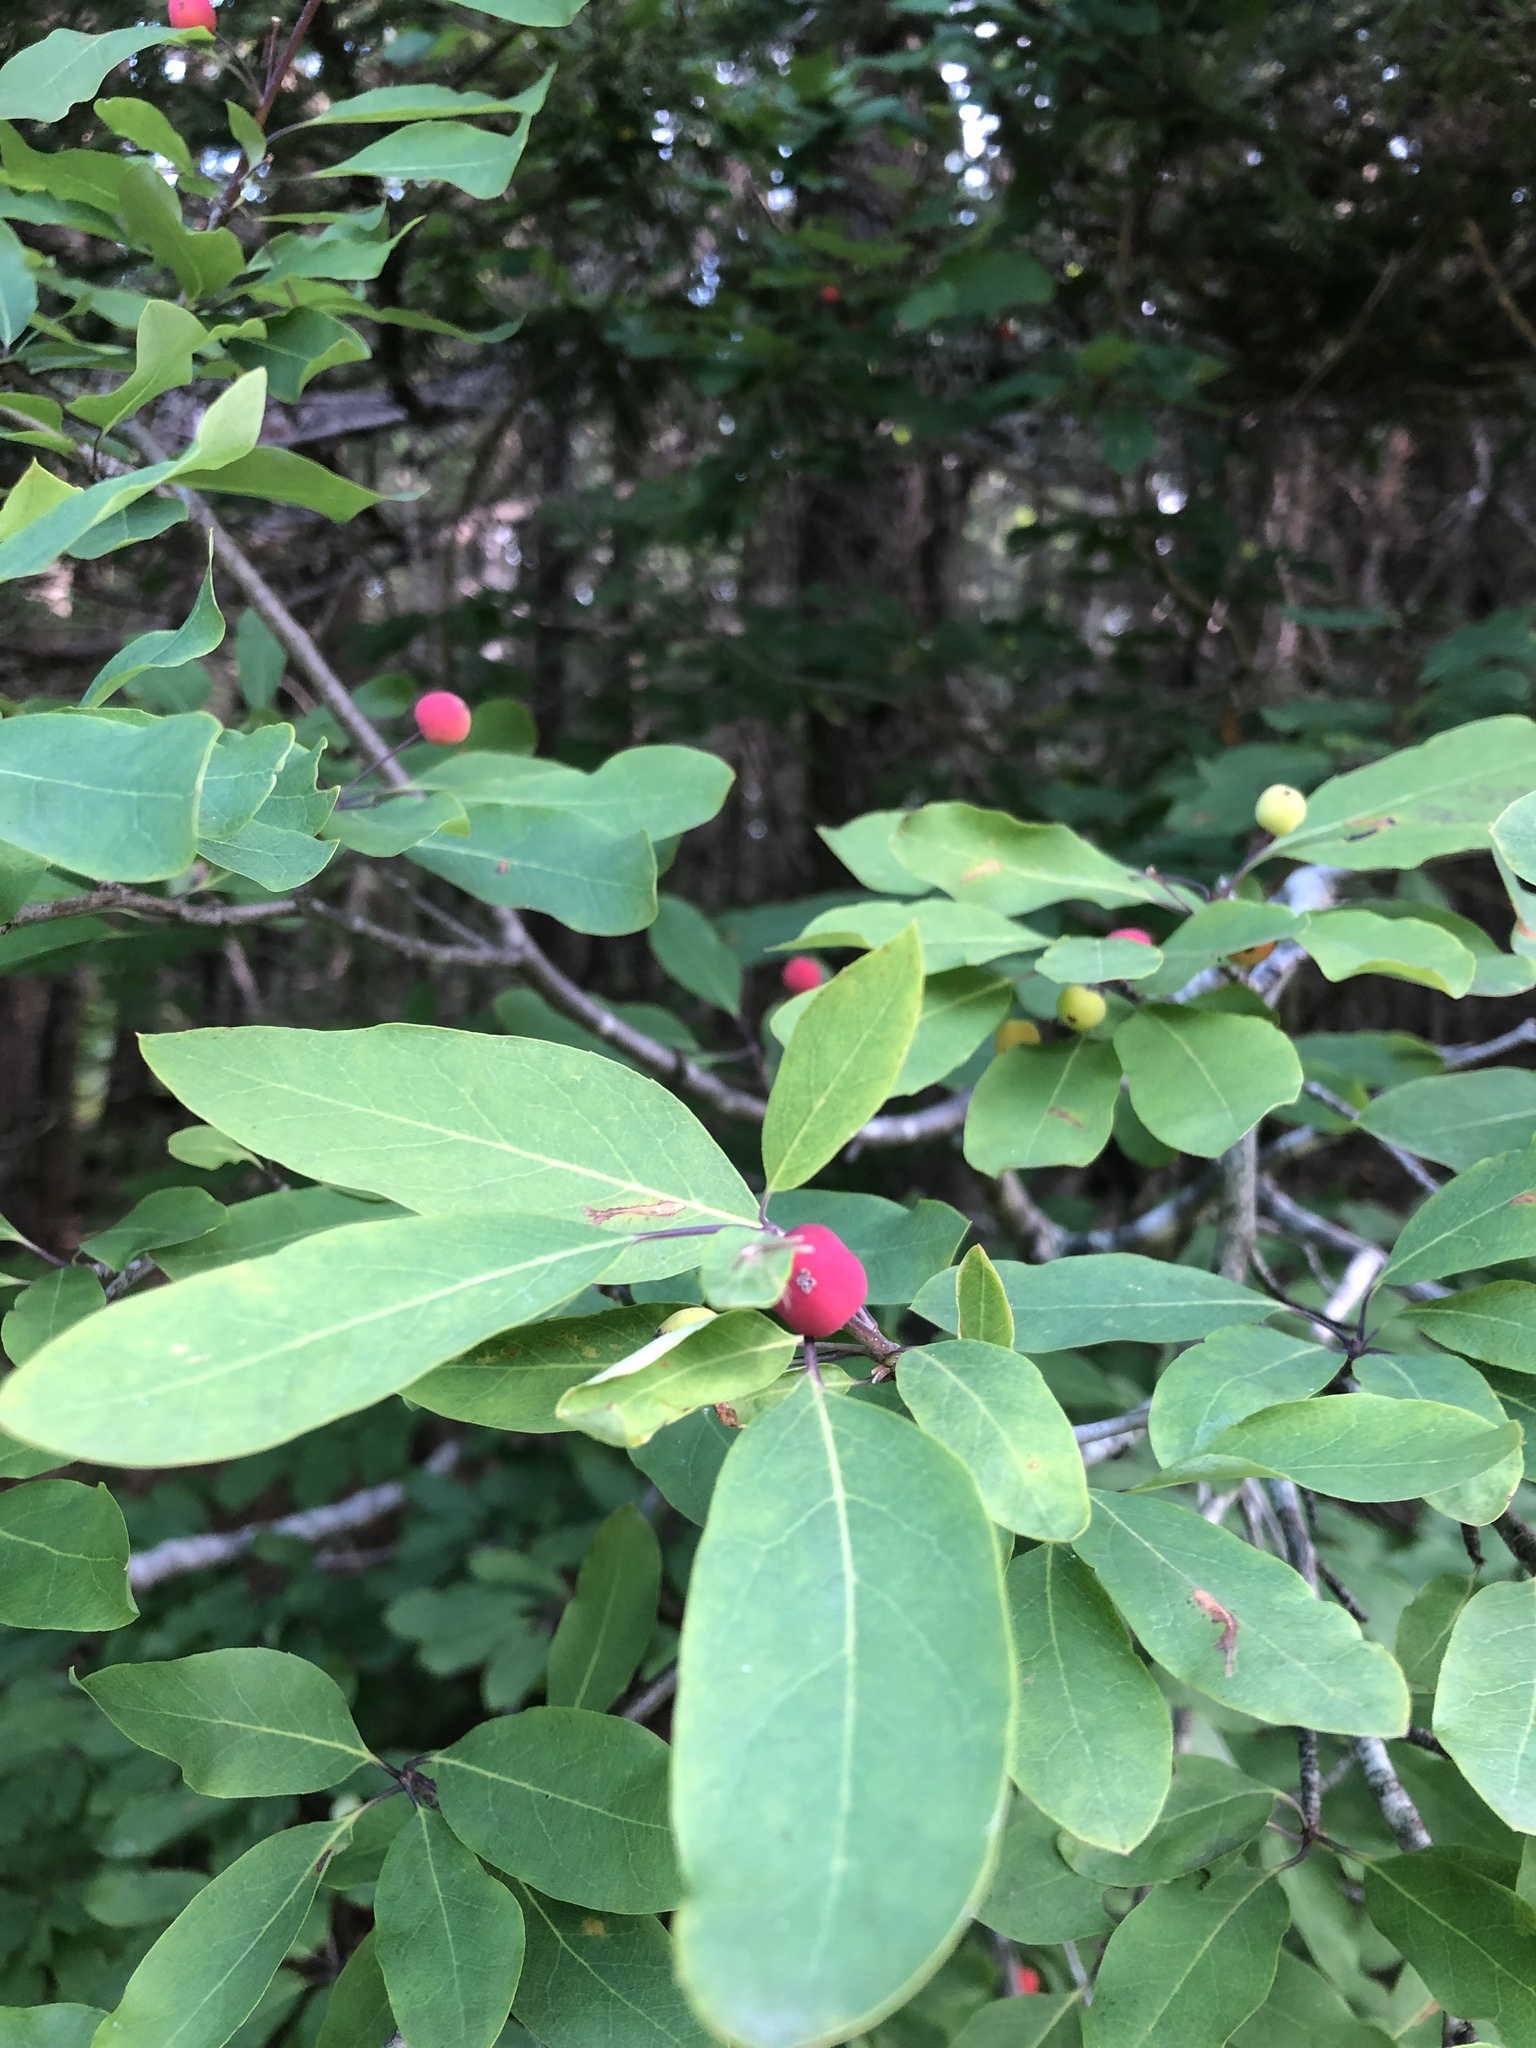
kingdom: Plantae
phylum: Tracheophyta
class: Magnoliopsida
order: Aquifoliales
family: Aquifoliaceae
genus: Ilex
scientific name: Ilex mucronata
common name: Catberry
